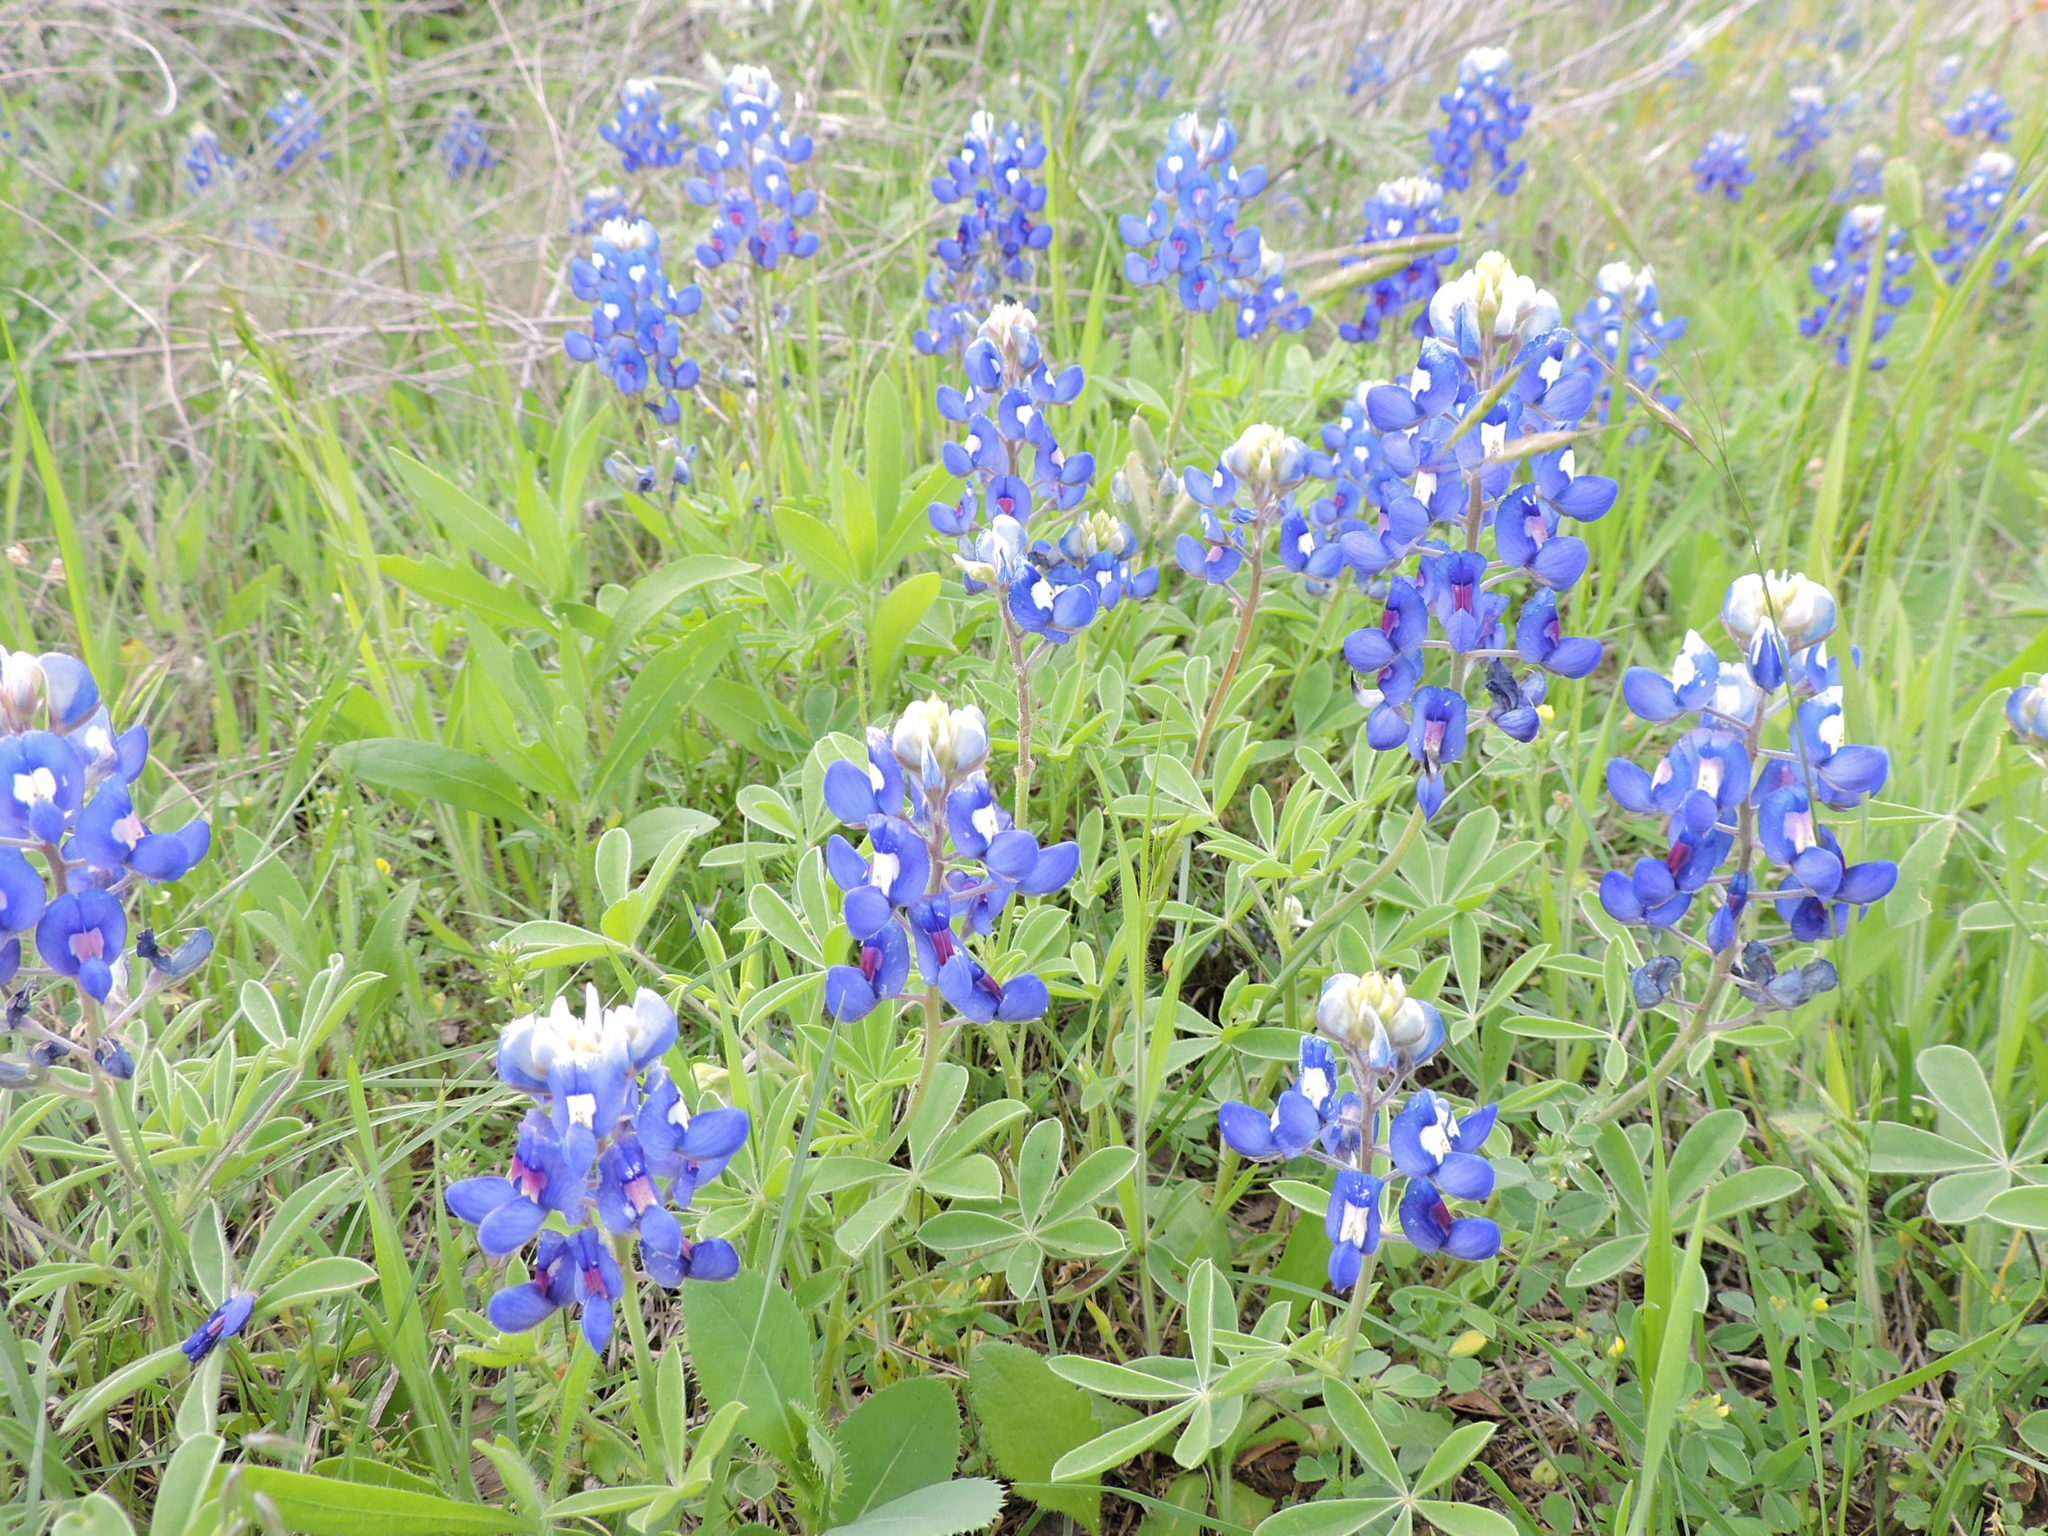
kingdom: Plantae
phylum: Tracheophyta
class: Magnoliopsida
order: Fabales
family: Fabaceae
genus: Lupinus
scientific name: Lupinus texensis
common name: Texas bluebonnet
